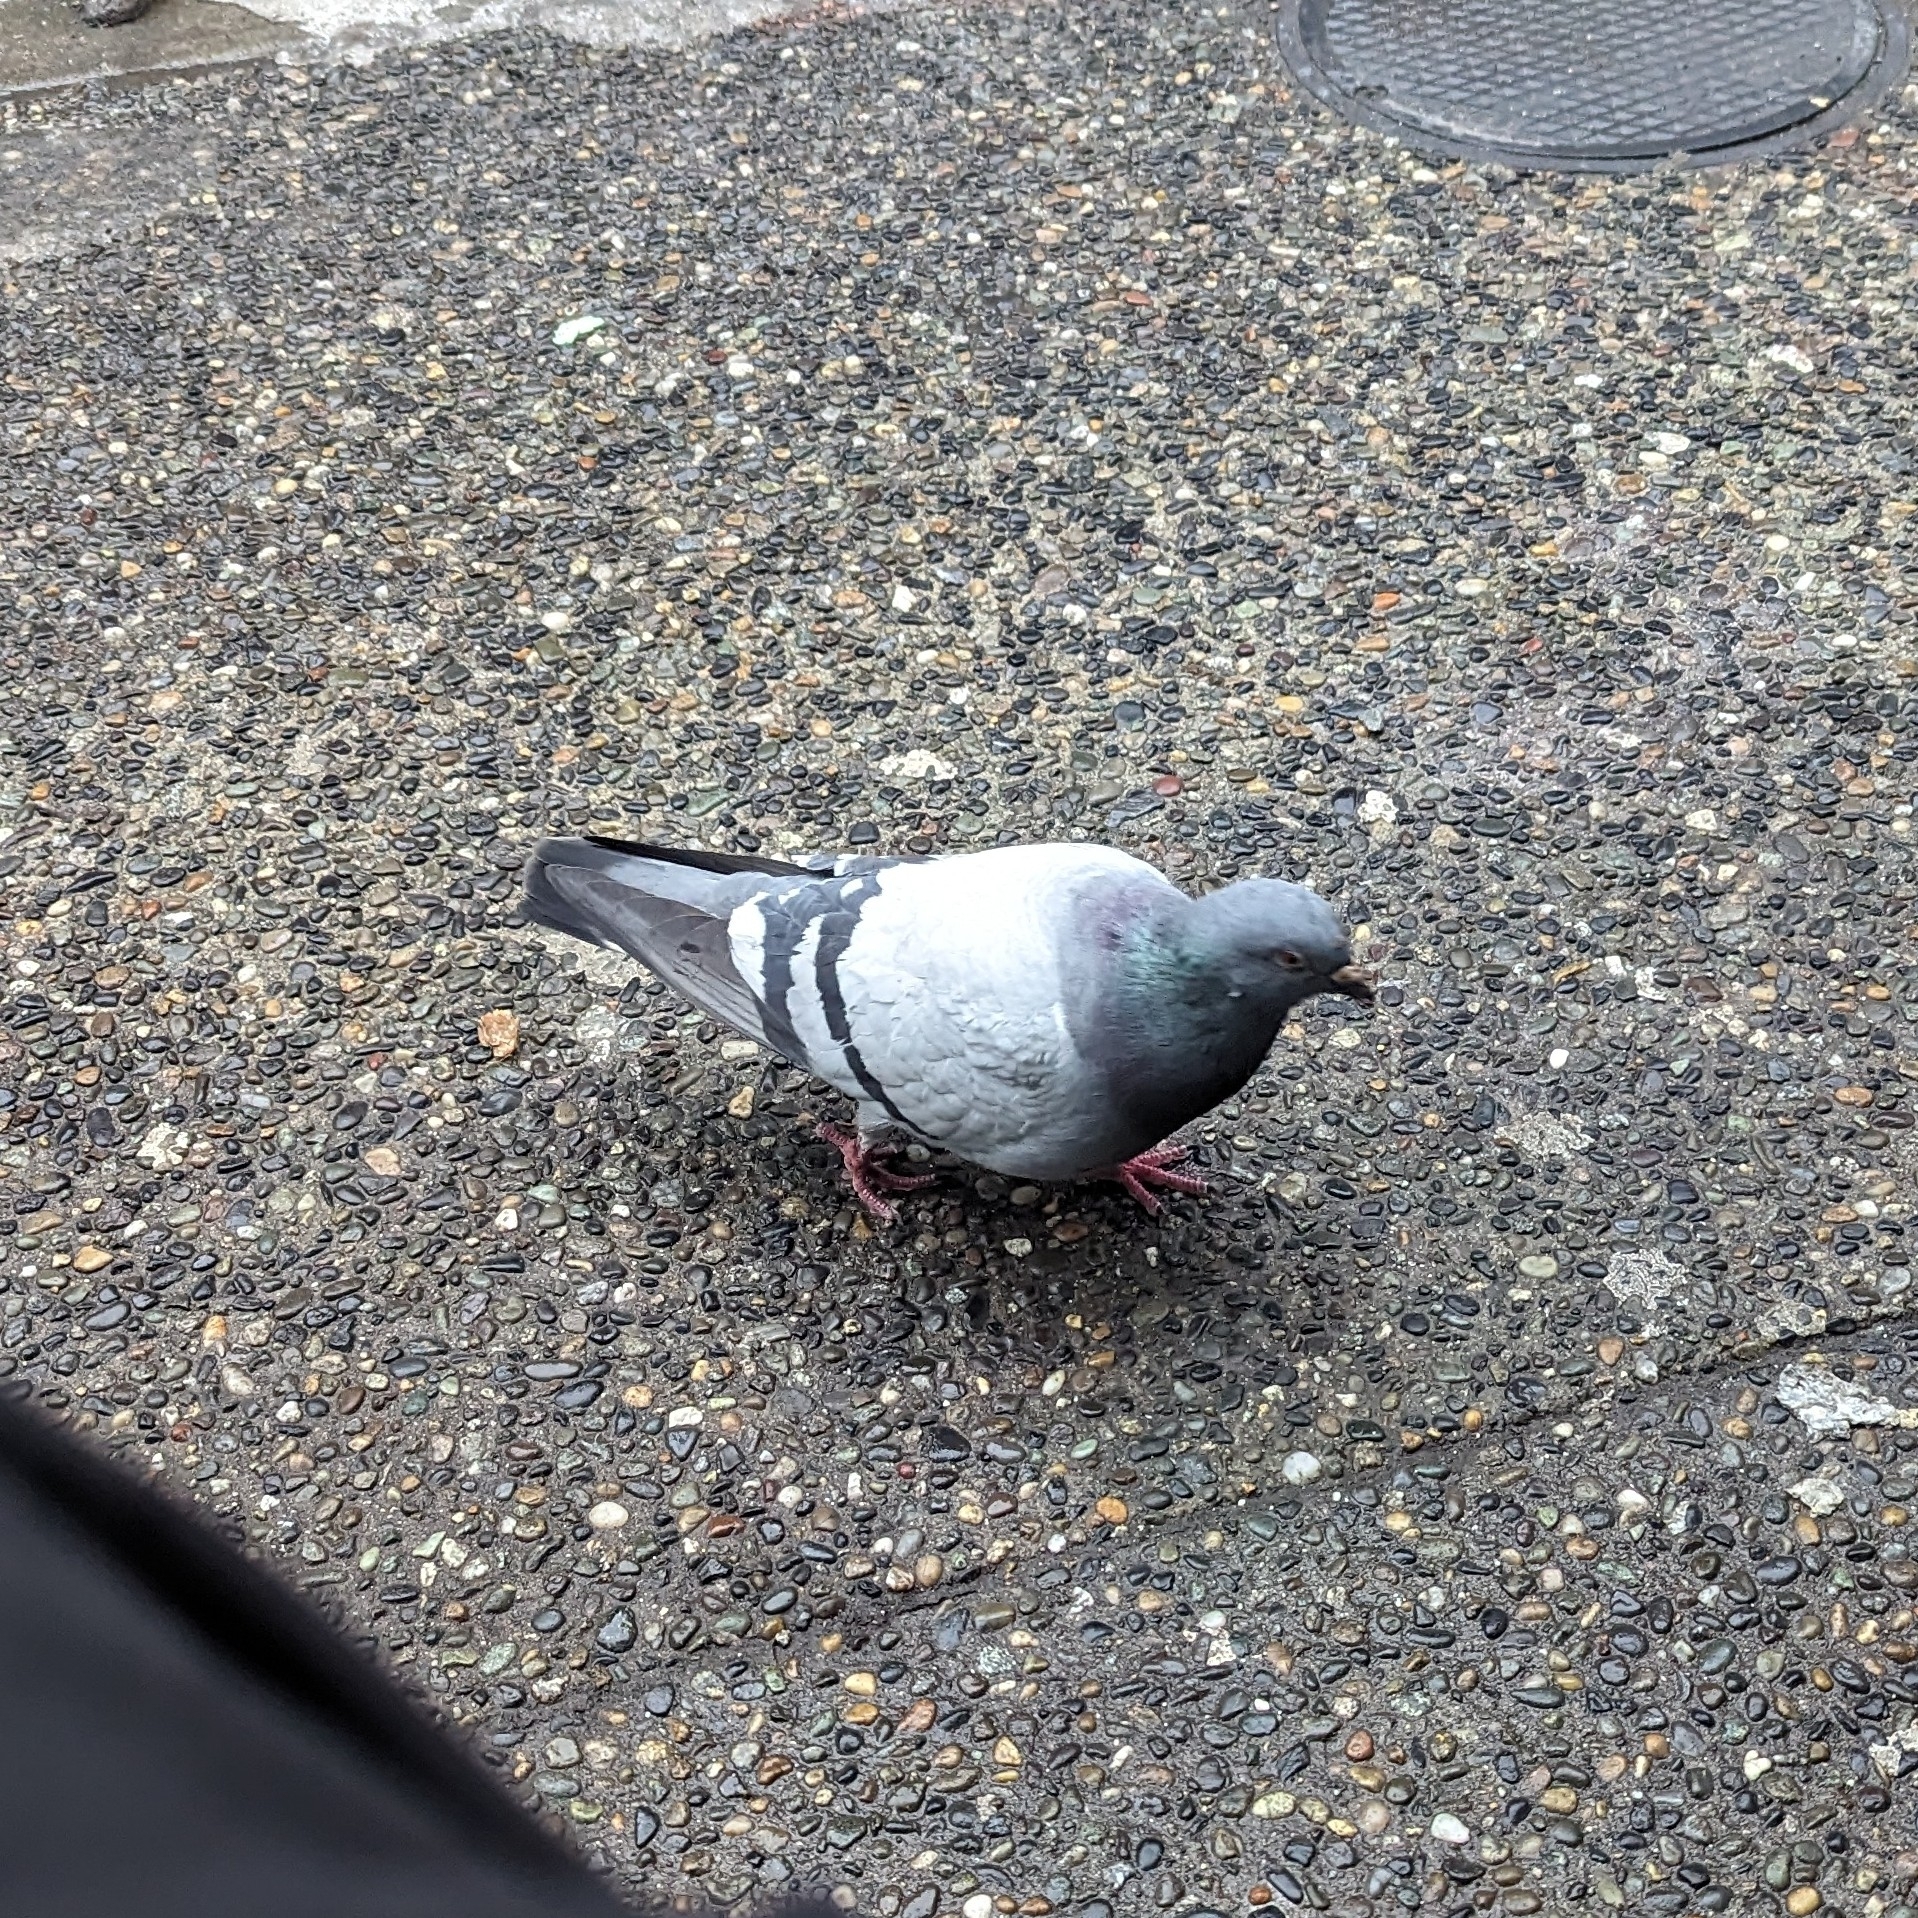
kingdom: Animalia
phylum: Chordata
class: Aves
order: Columbiformes
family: Columbidae
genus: Columba
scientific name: Columba livia
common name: Rock pigeon
